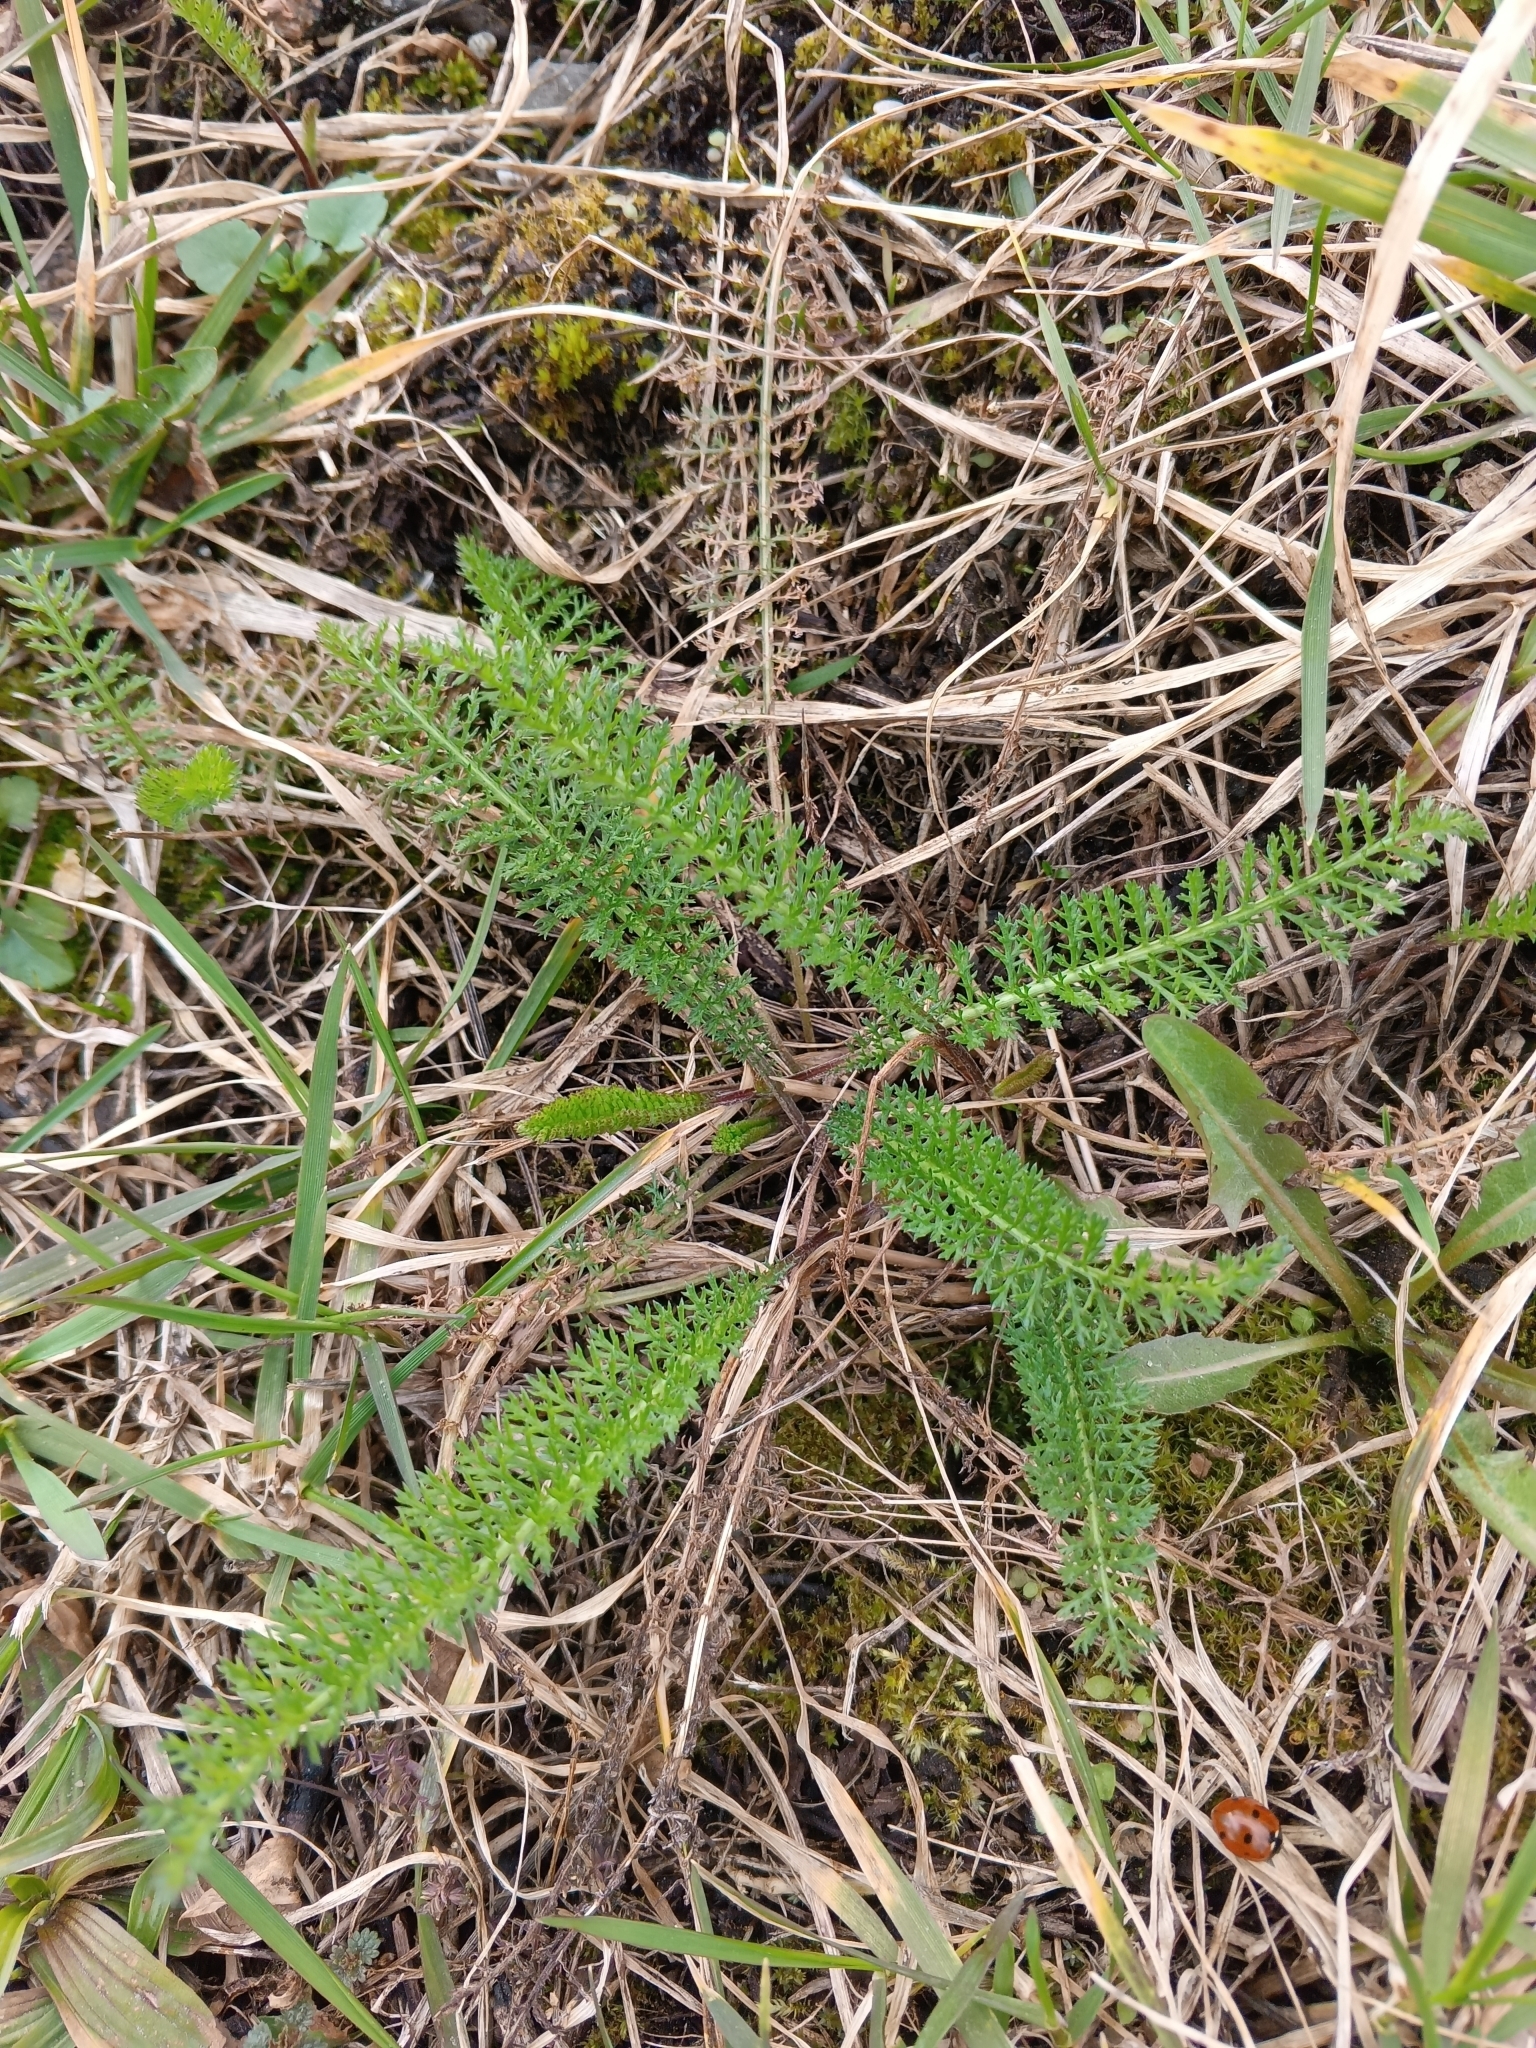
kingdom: Plantae
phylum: Tracheophyta
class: Magnoliopsida
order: Asterales
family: Asteraceae
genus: Achillea
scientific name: Achillea millefolium
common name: Yarrow
